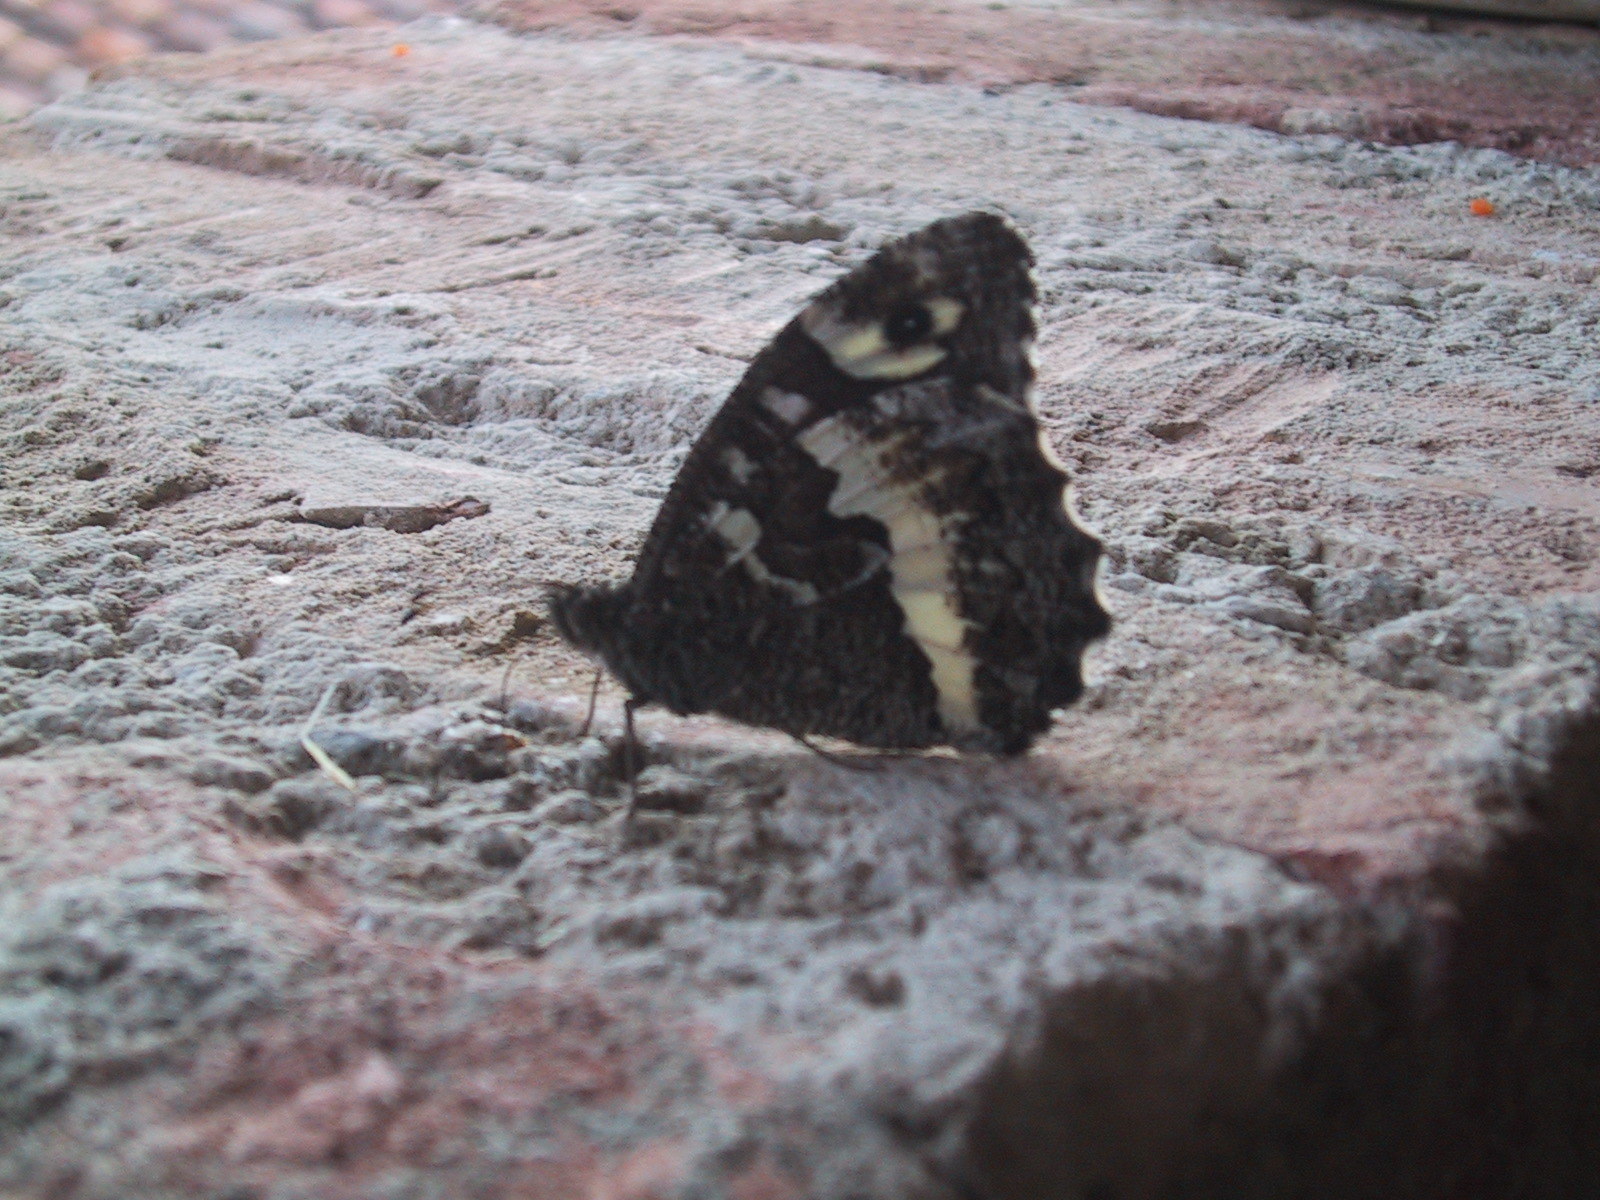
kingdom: Animalia
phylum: Arthropoda
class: Insecta
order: Lepidoptera
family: Lycaenidae
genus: Loweia
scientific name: Loweia tityrus
